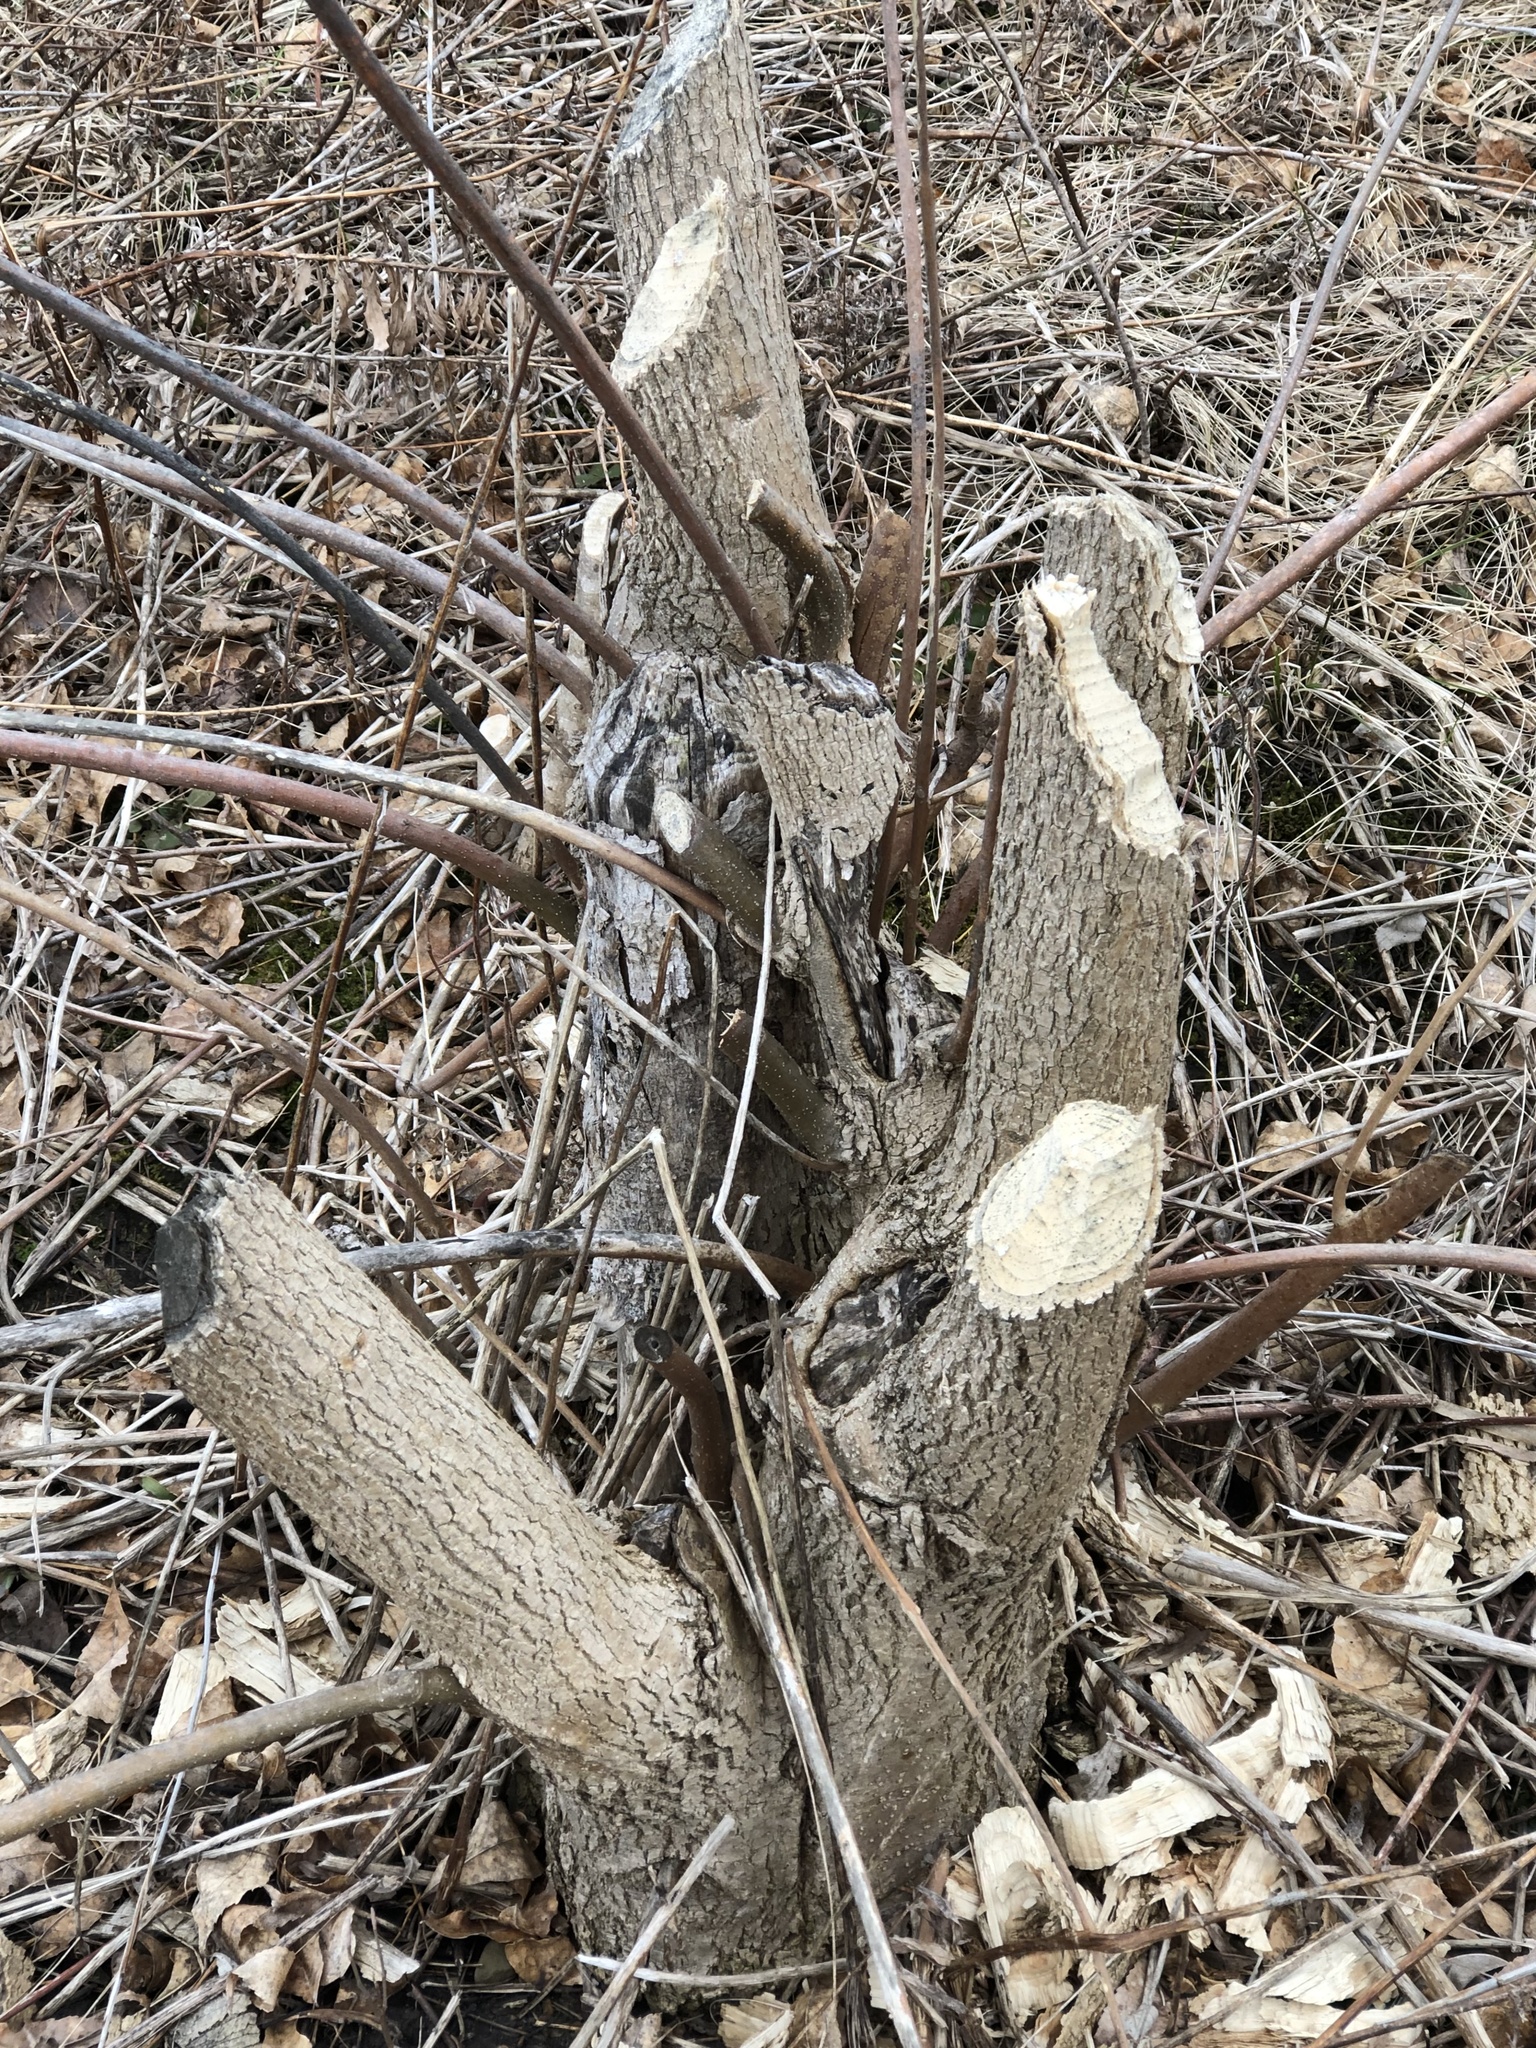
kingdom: Animalia
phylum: Chordata
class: Mammalia
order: Rodentia
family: Castoridae
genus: Castor
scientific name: Castor canadensis
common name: American beaver
